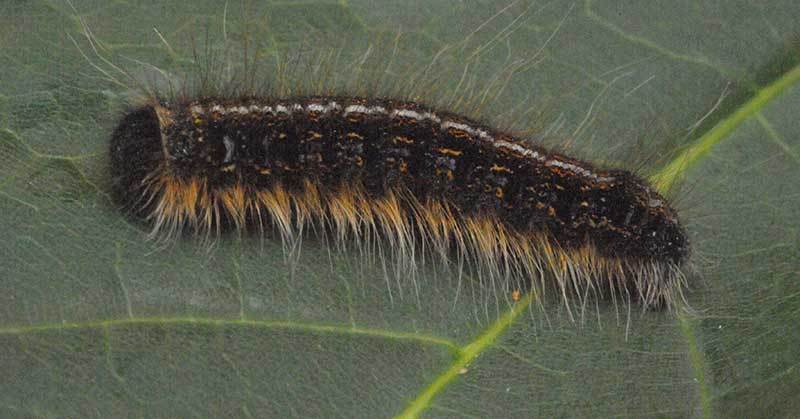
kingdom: Animalia
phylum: Arthropoda
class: Insecta
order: Lepidoptera
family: Lasiocampidae
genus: Malacosoma
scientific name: Malacosoma americana
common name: Eastern tent caterpillar moth
